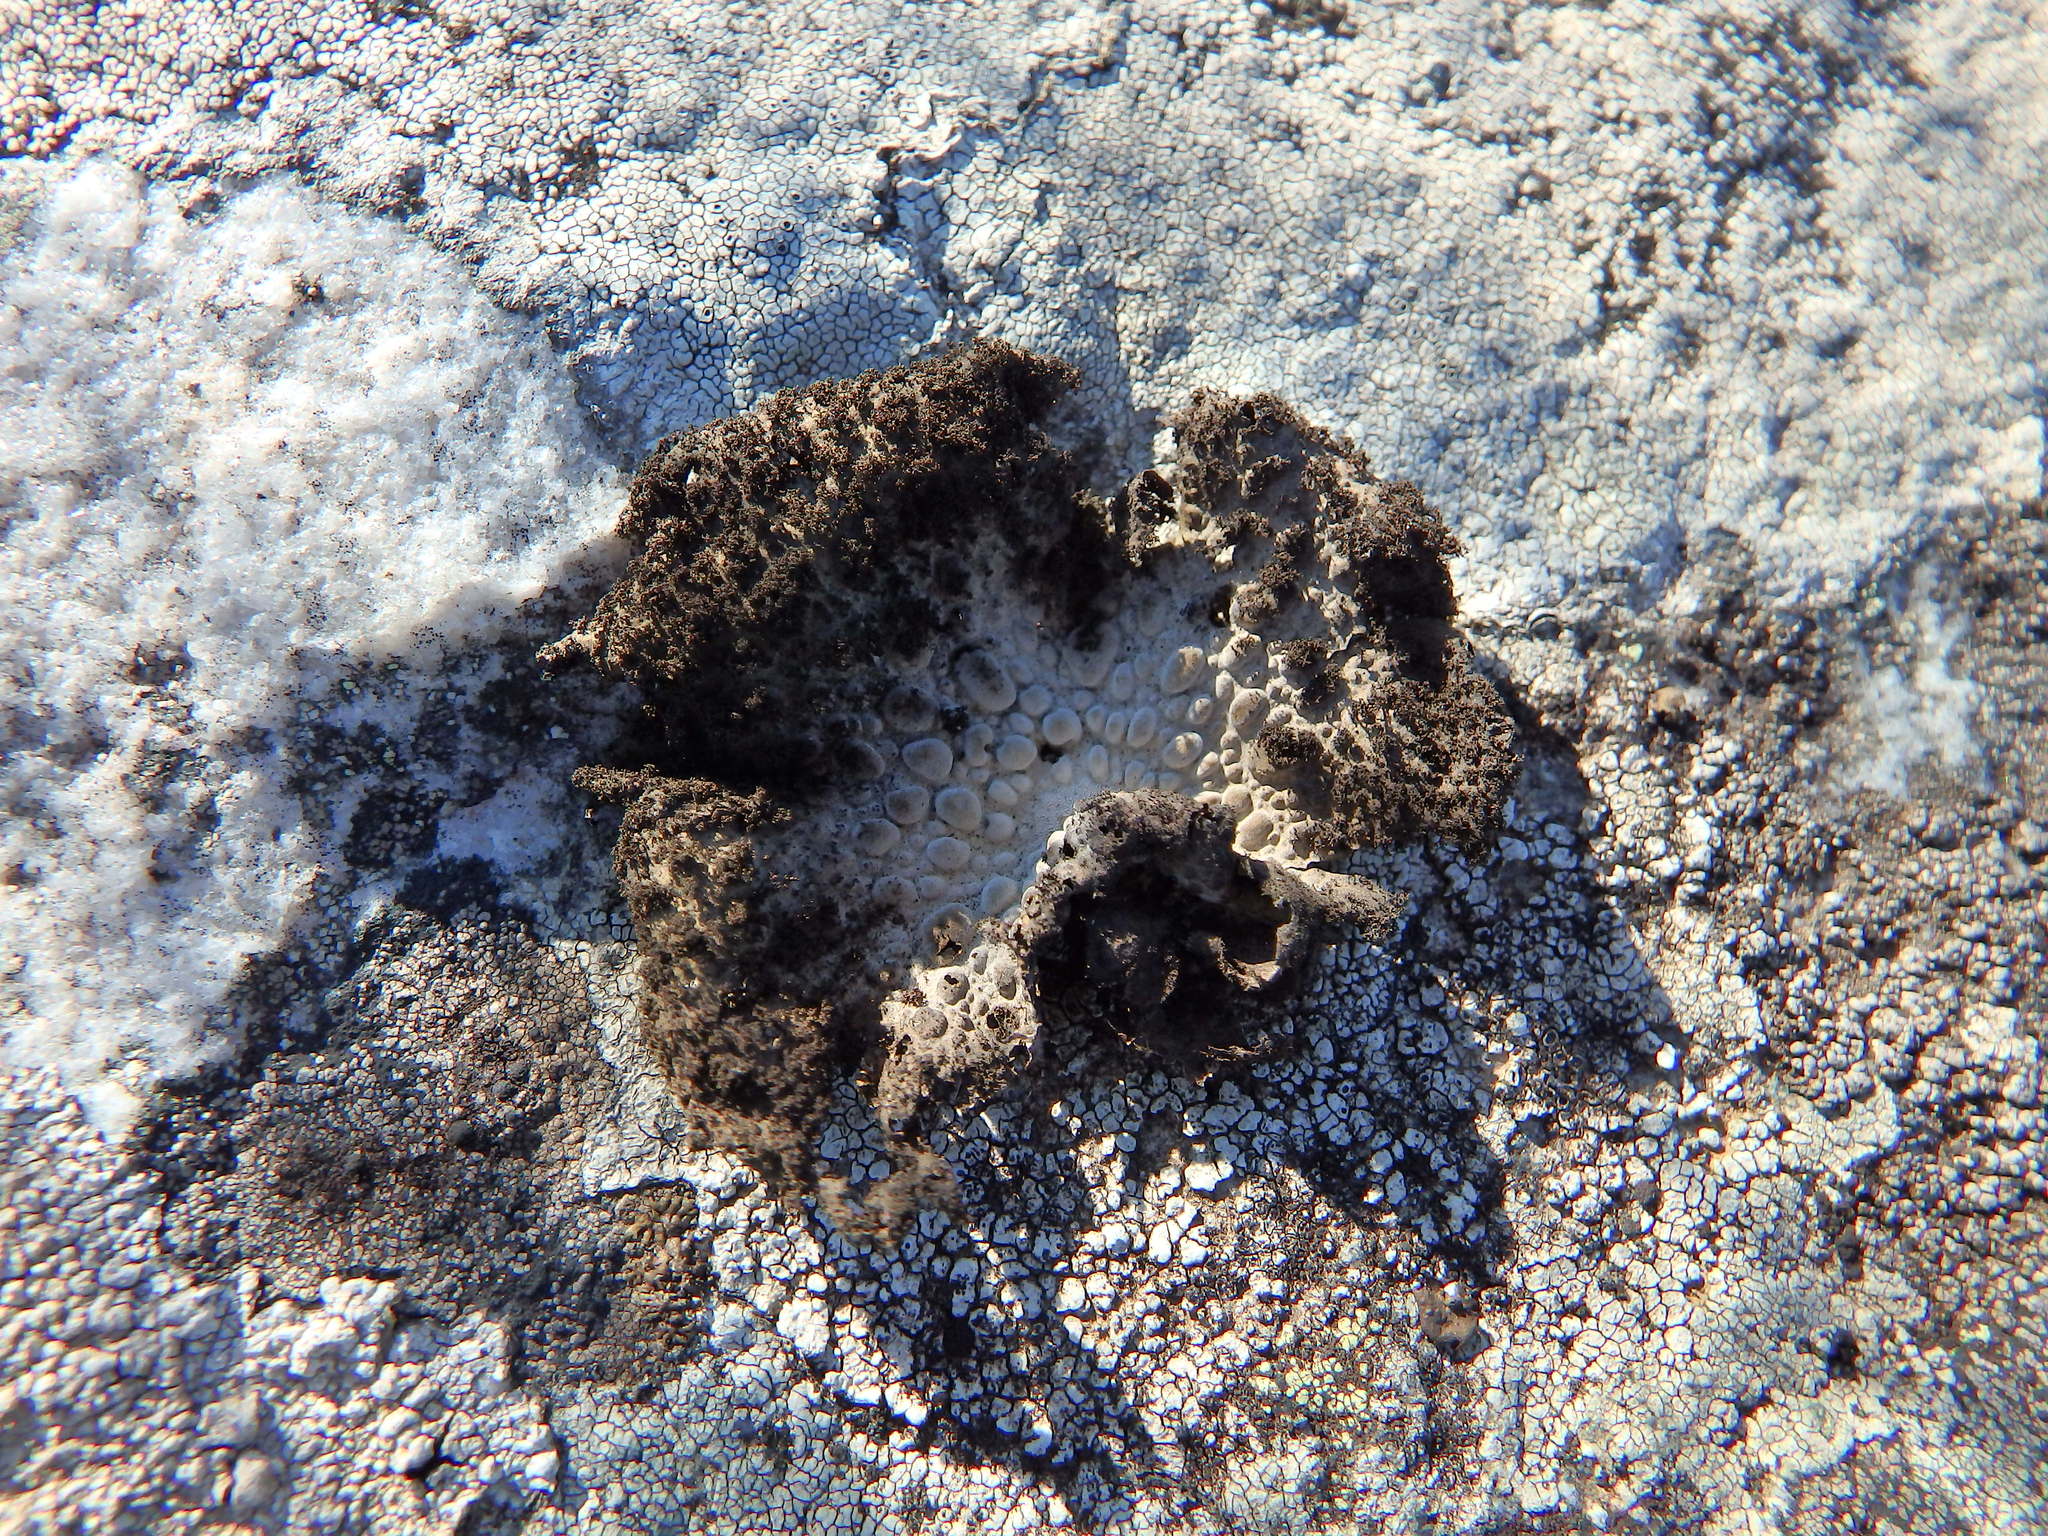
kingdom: Fungi
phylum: Ascomycota
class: Lecanoromycetes
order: Umbilicariales
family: Umbilicariaceae
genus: Lasallia
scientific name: Lasallia pustulata
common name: Blistered toadskin lichen
